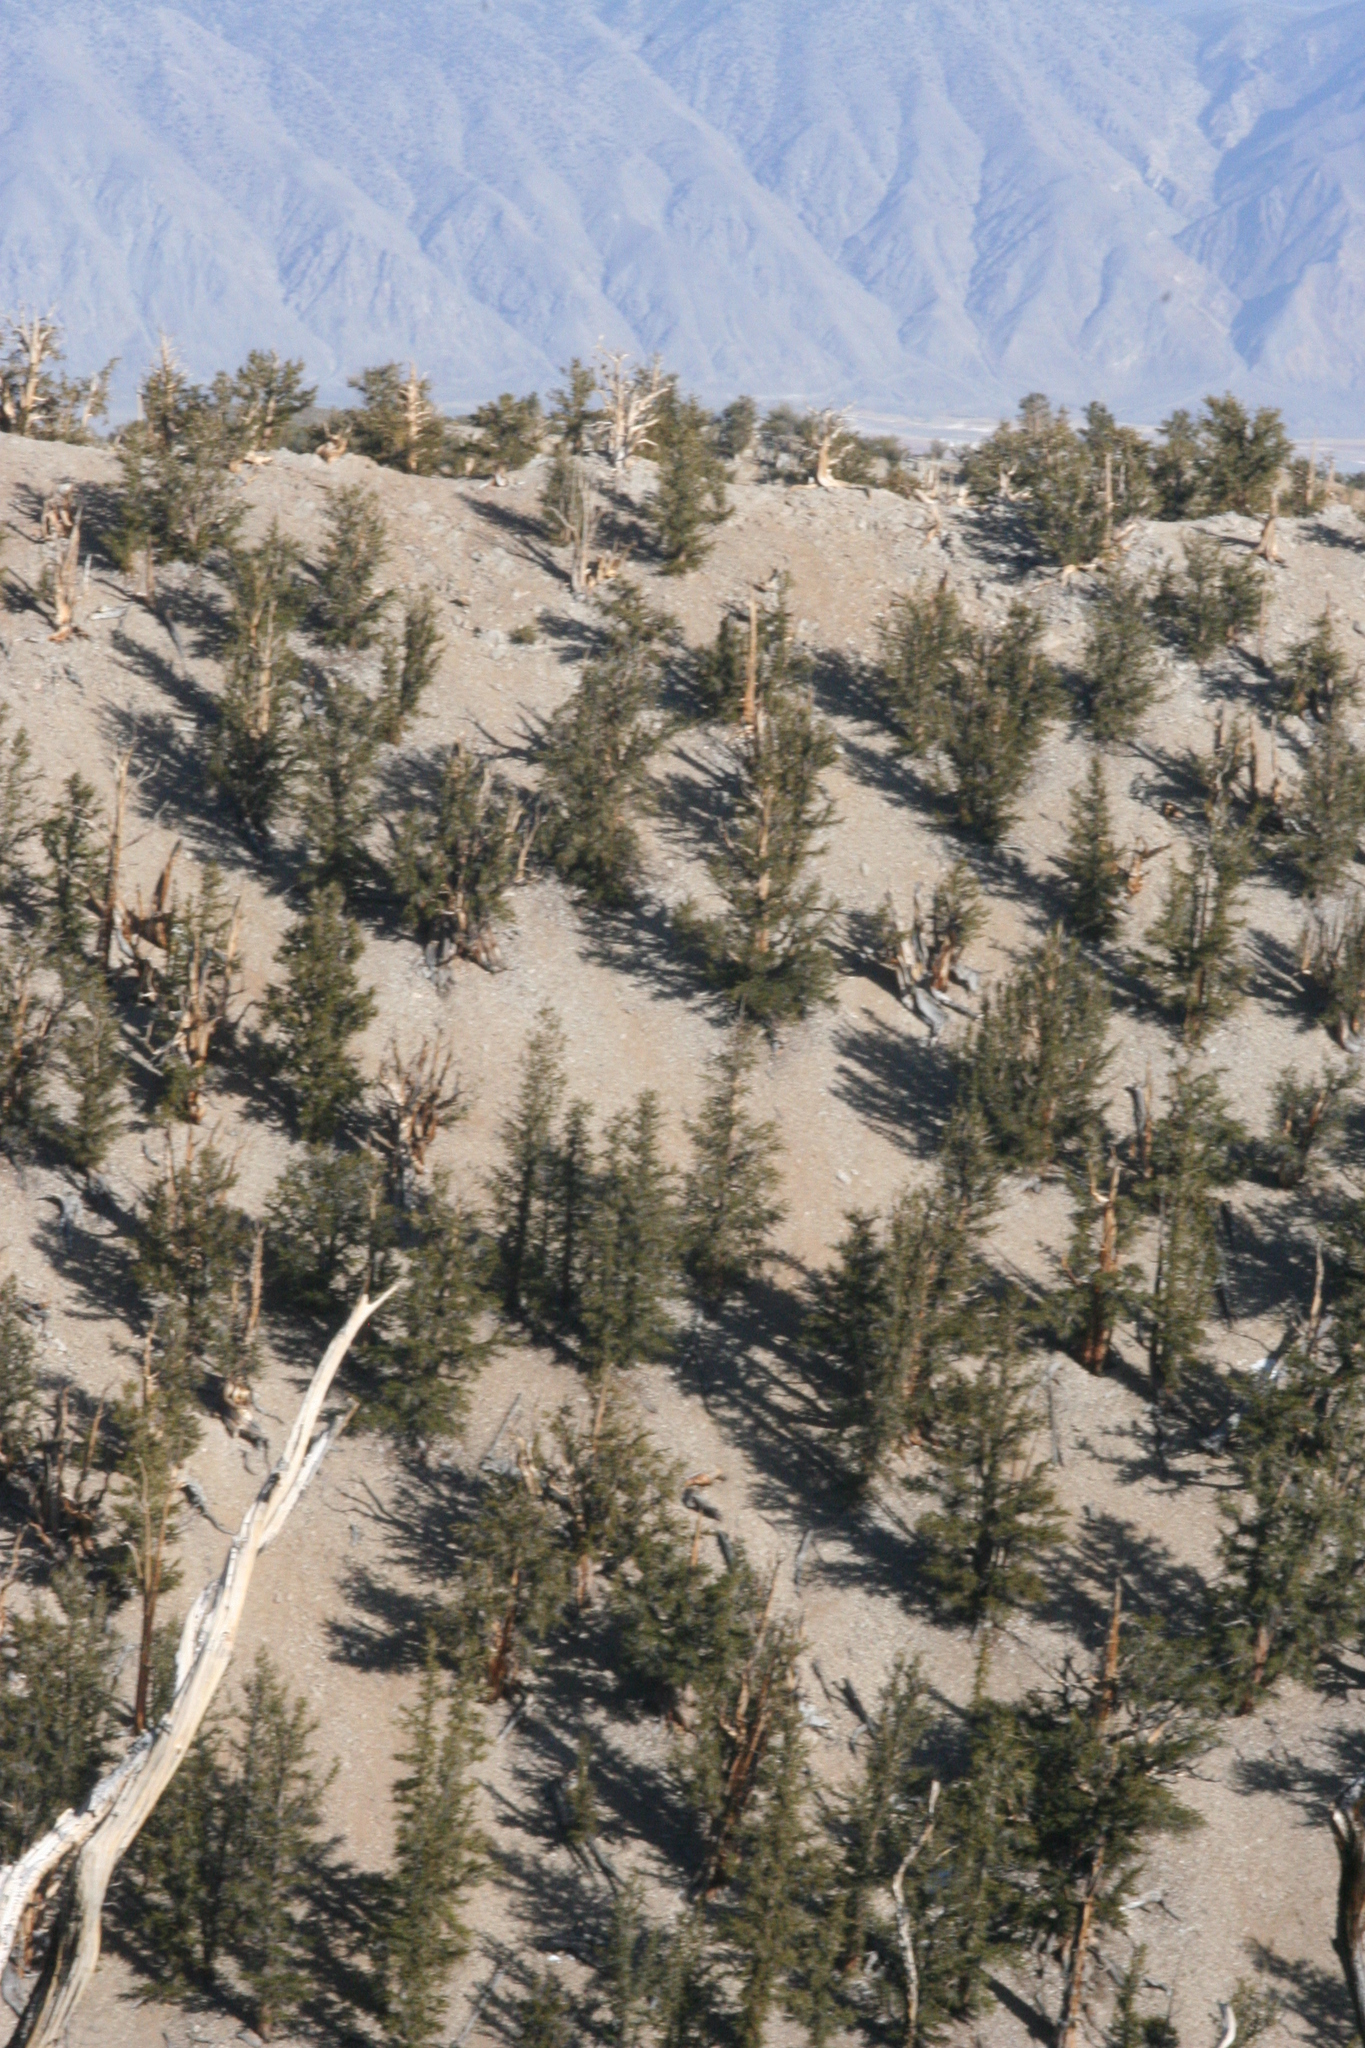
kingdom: Plantae
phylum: Tracheophyta
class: Pinopsida
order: Pinales
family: Pinaceae
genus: Pinus
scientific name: Pinus longaeva
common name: Intermountain bristlecone pine
